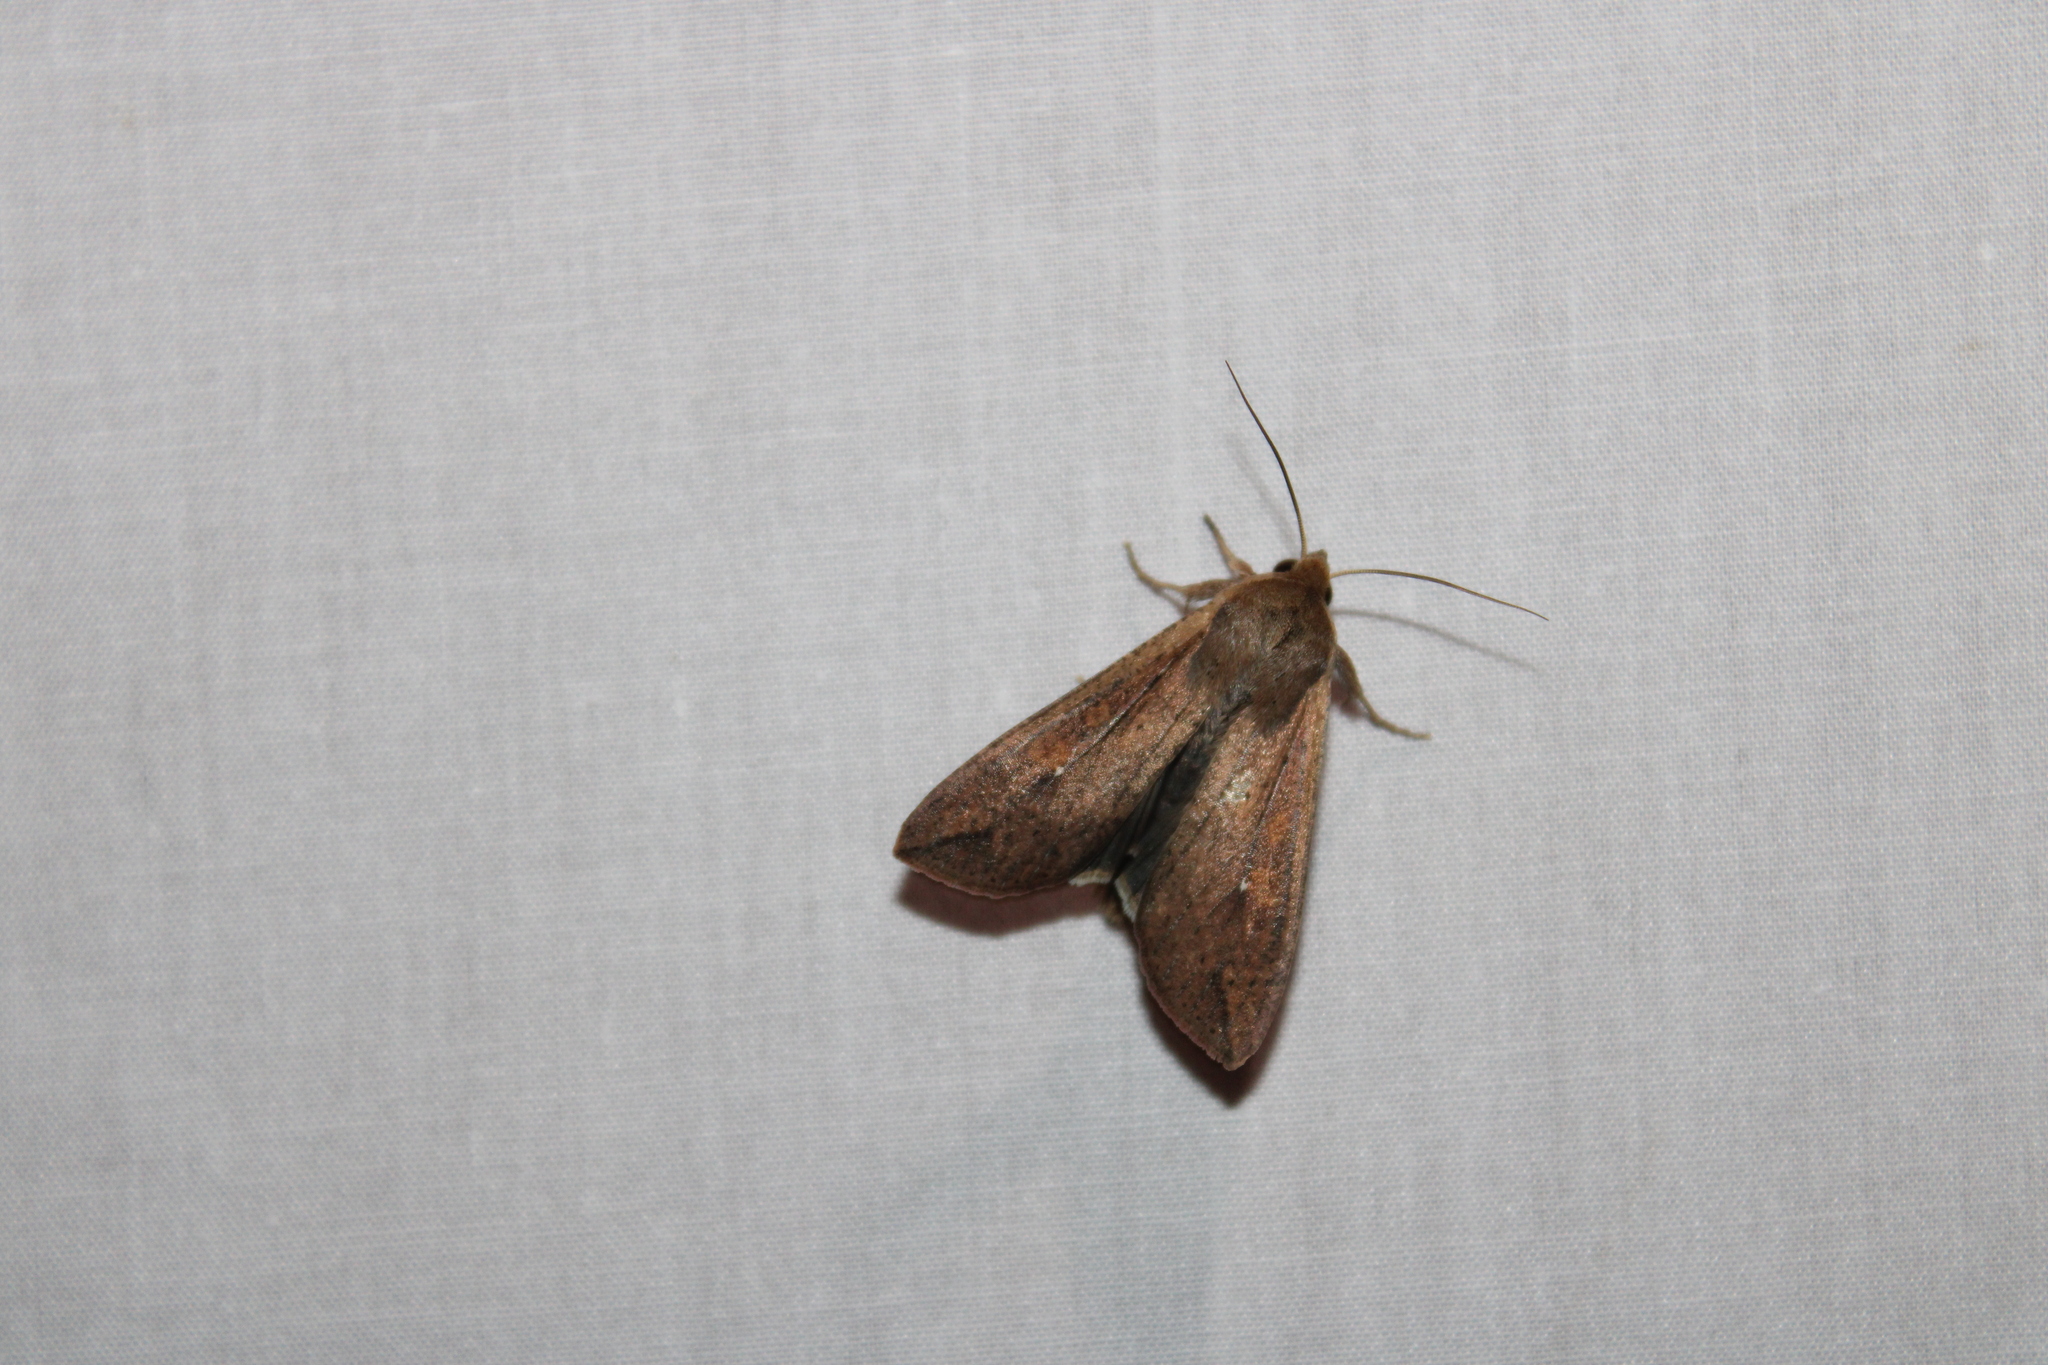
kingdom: Animalia
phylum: Arthropoda
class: Insecta
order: Lepidoptera
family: Noctuidae
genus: Mythimna
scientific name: Mythimna unipuncta
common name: White-speck
